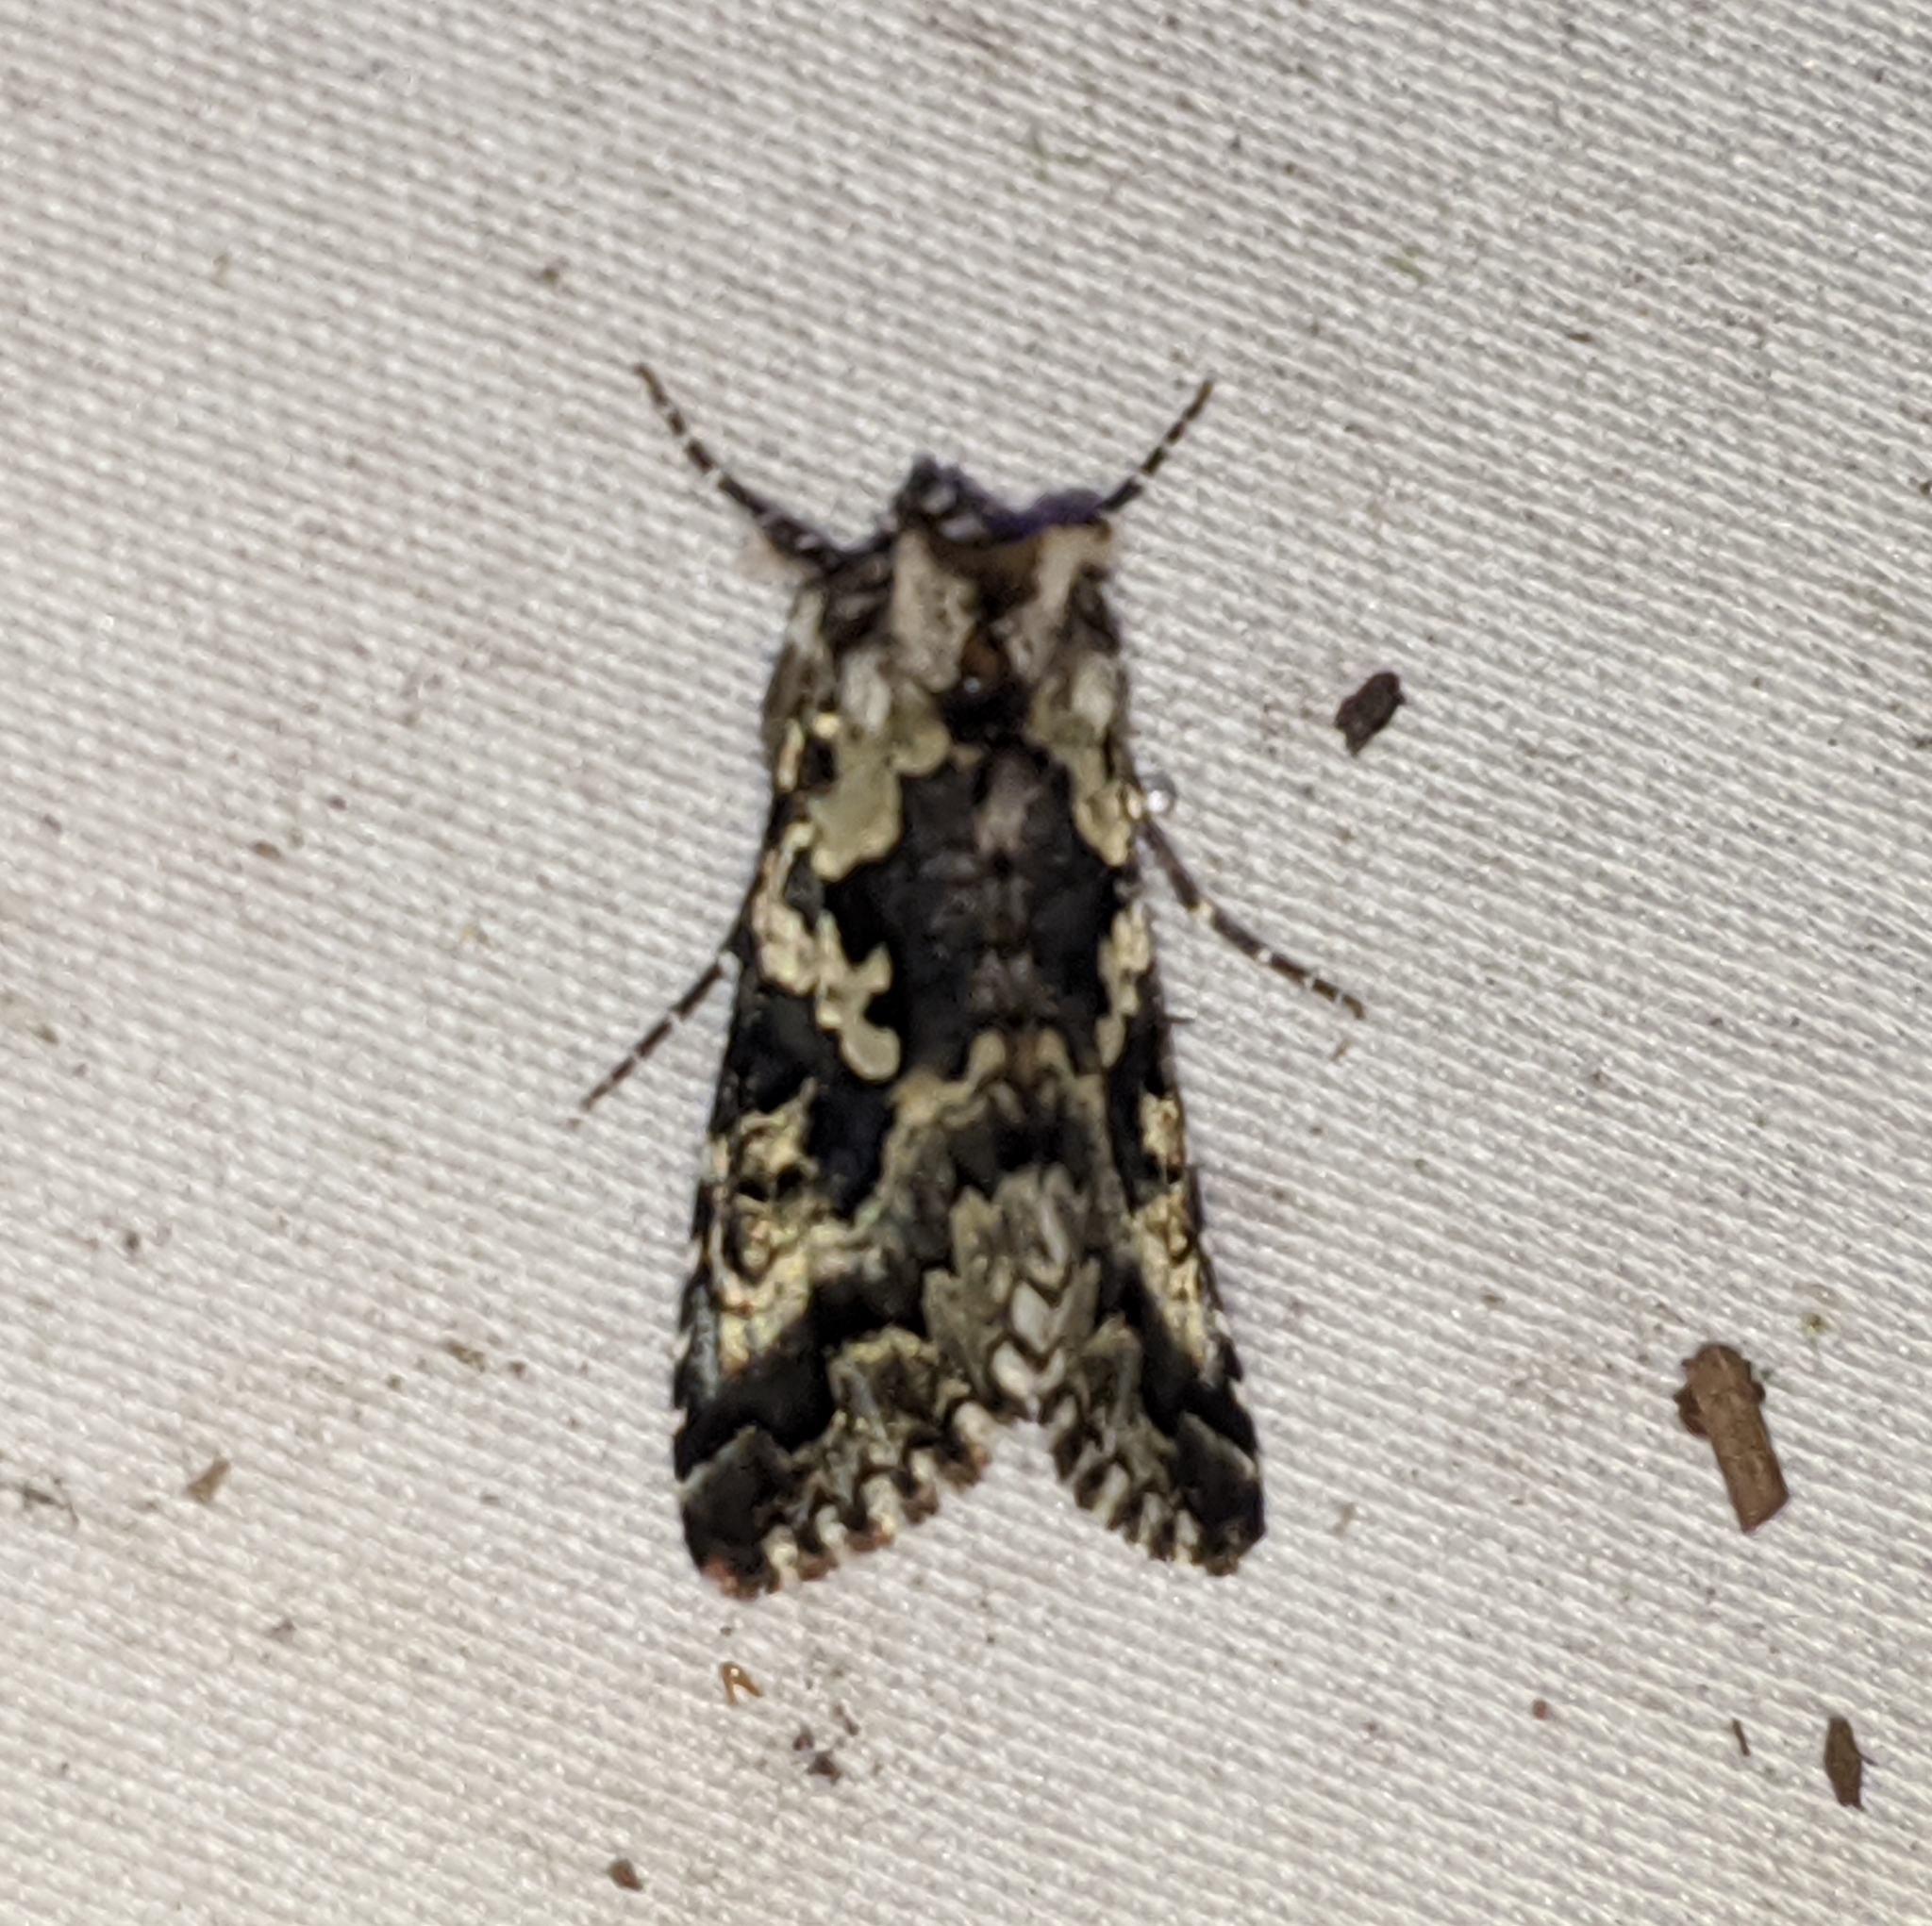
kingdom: Animalia
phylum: Arthropoda
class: Insecta
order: Lepidoptera
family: Noctuidae
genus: Syngrapha
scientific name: Syngrapha rectangula
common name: Angulated cutworm
